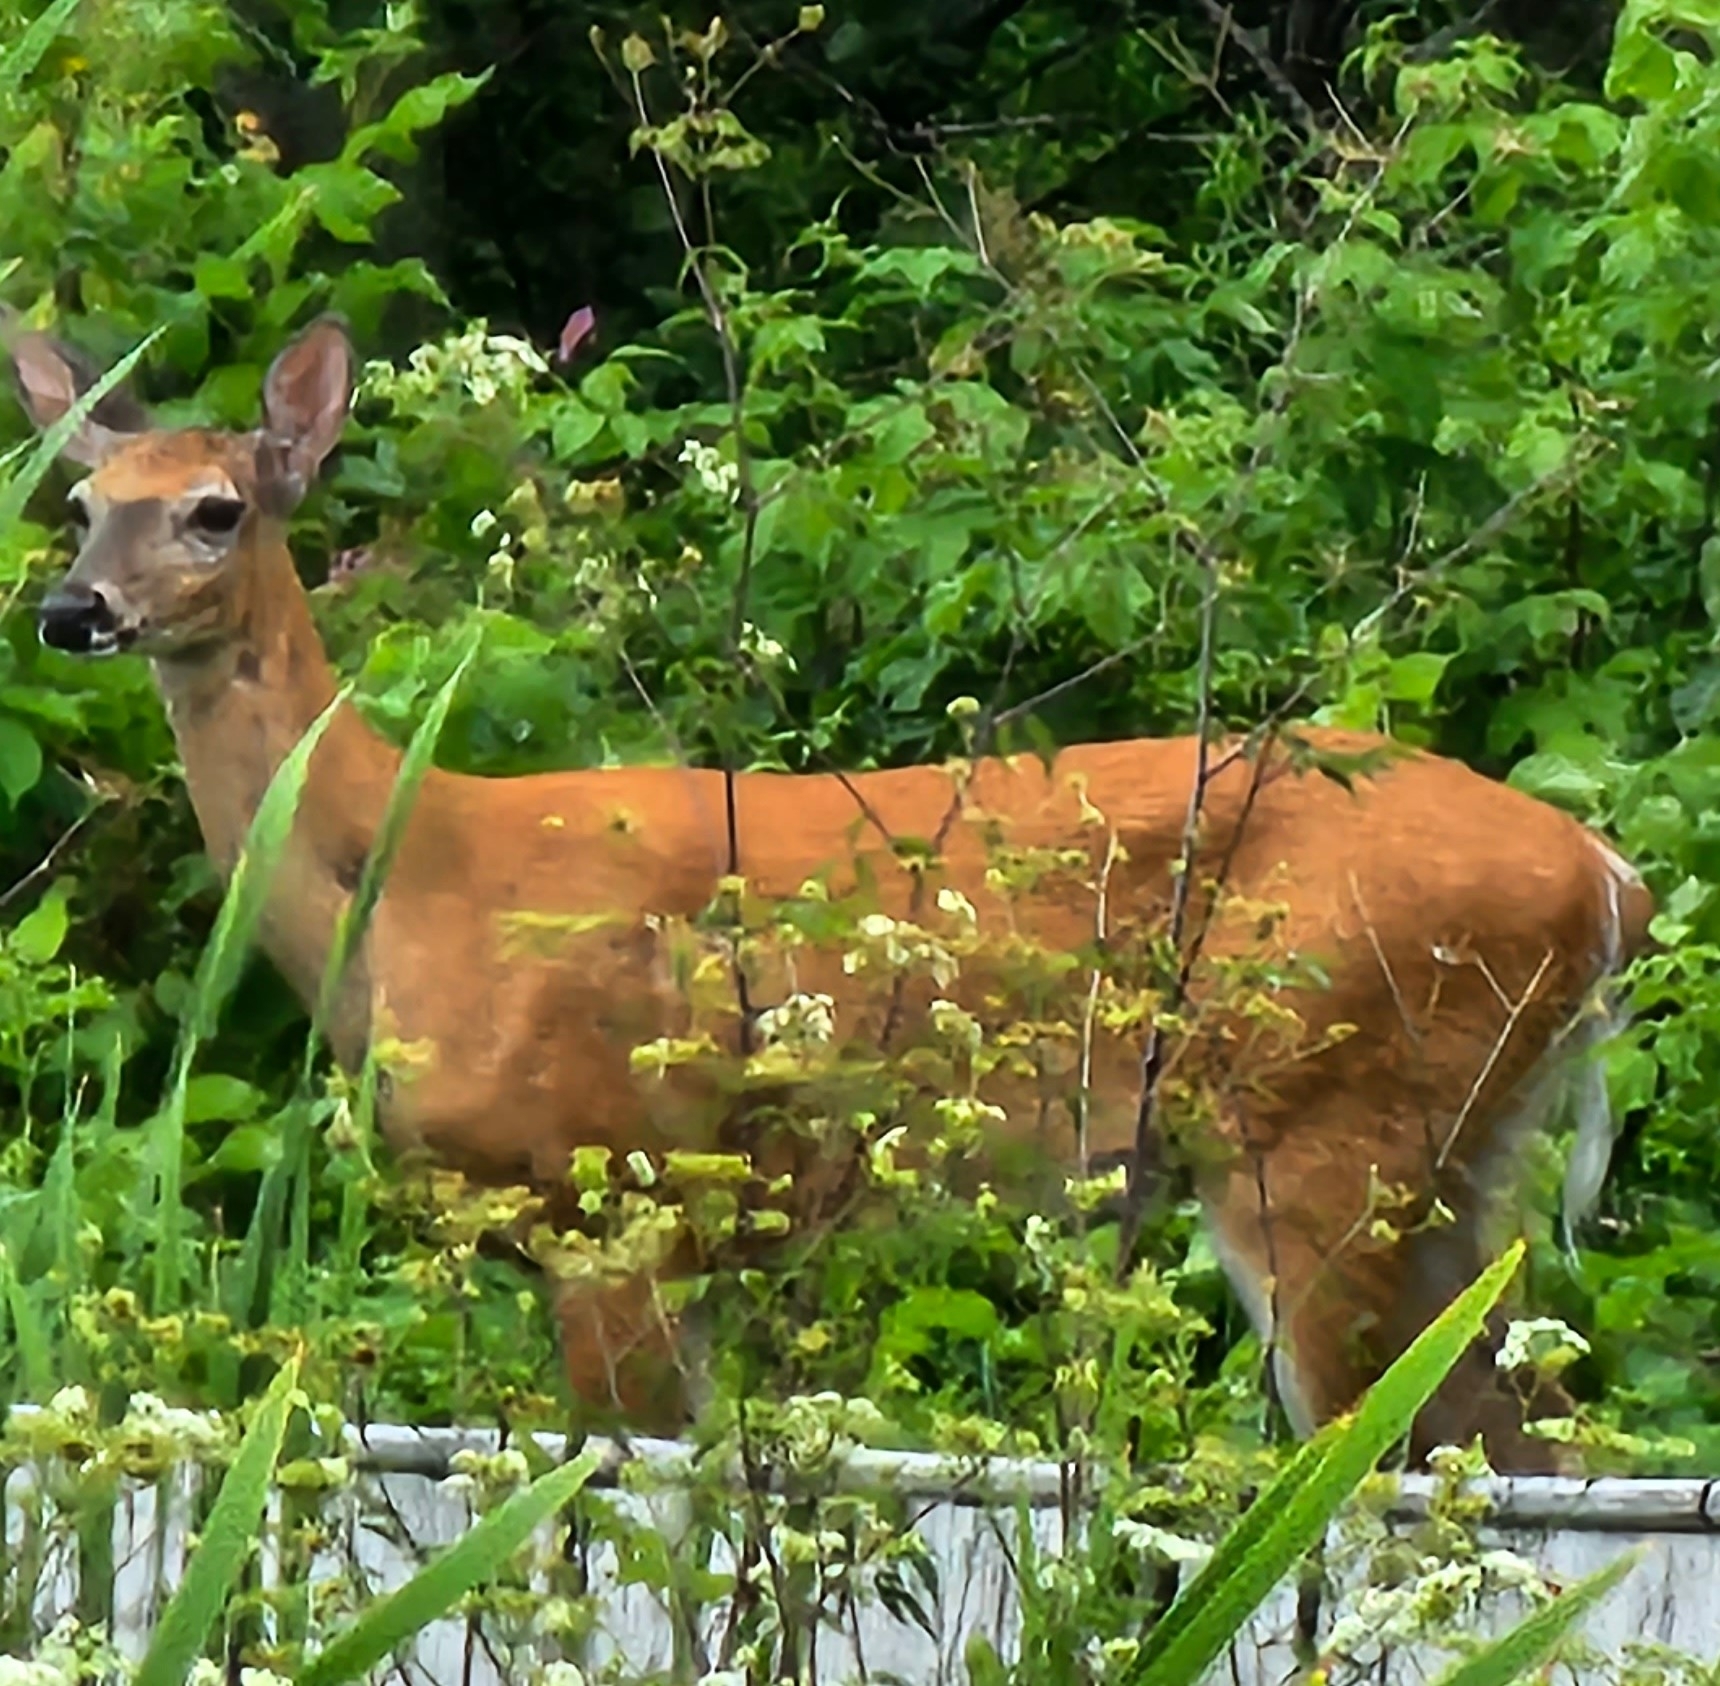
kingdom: Animalia
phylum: Chordata
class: Mammalia
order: Artiodactyla
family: Cervidae
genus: Odocoileus
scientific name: Odocoileus virginianus
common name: White-tailed deer
